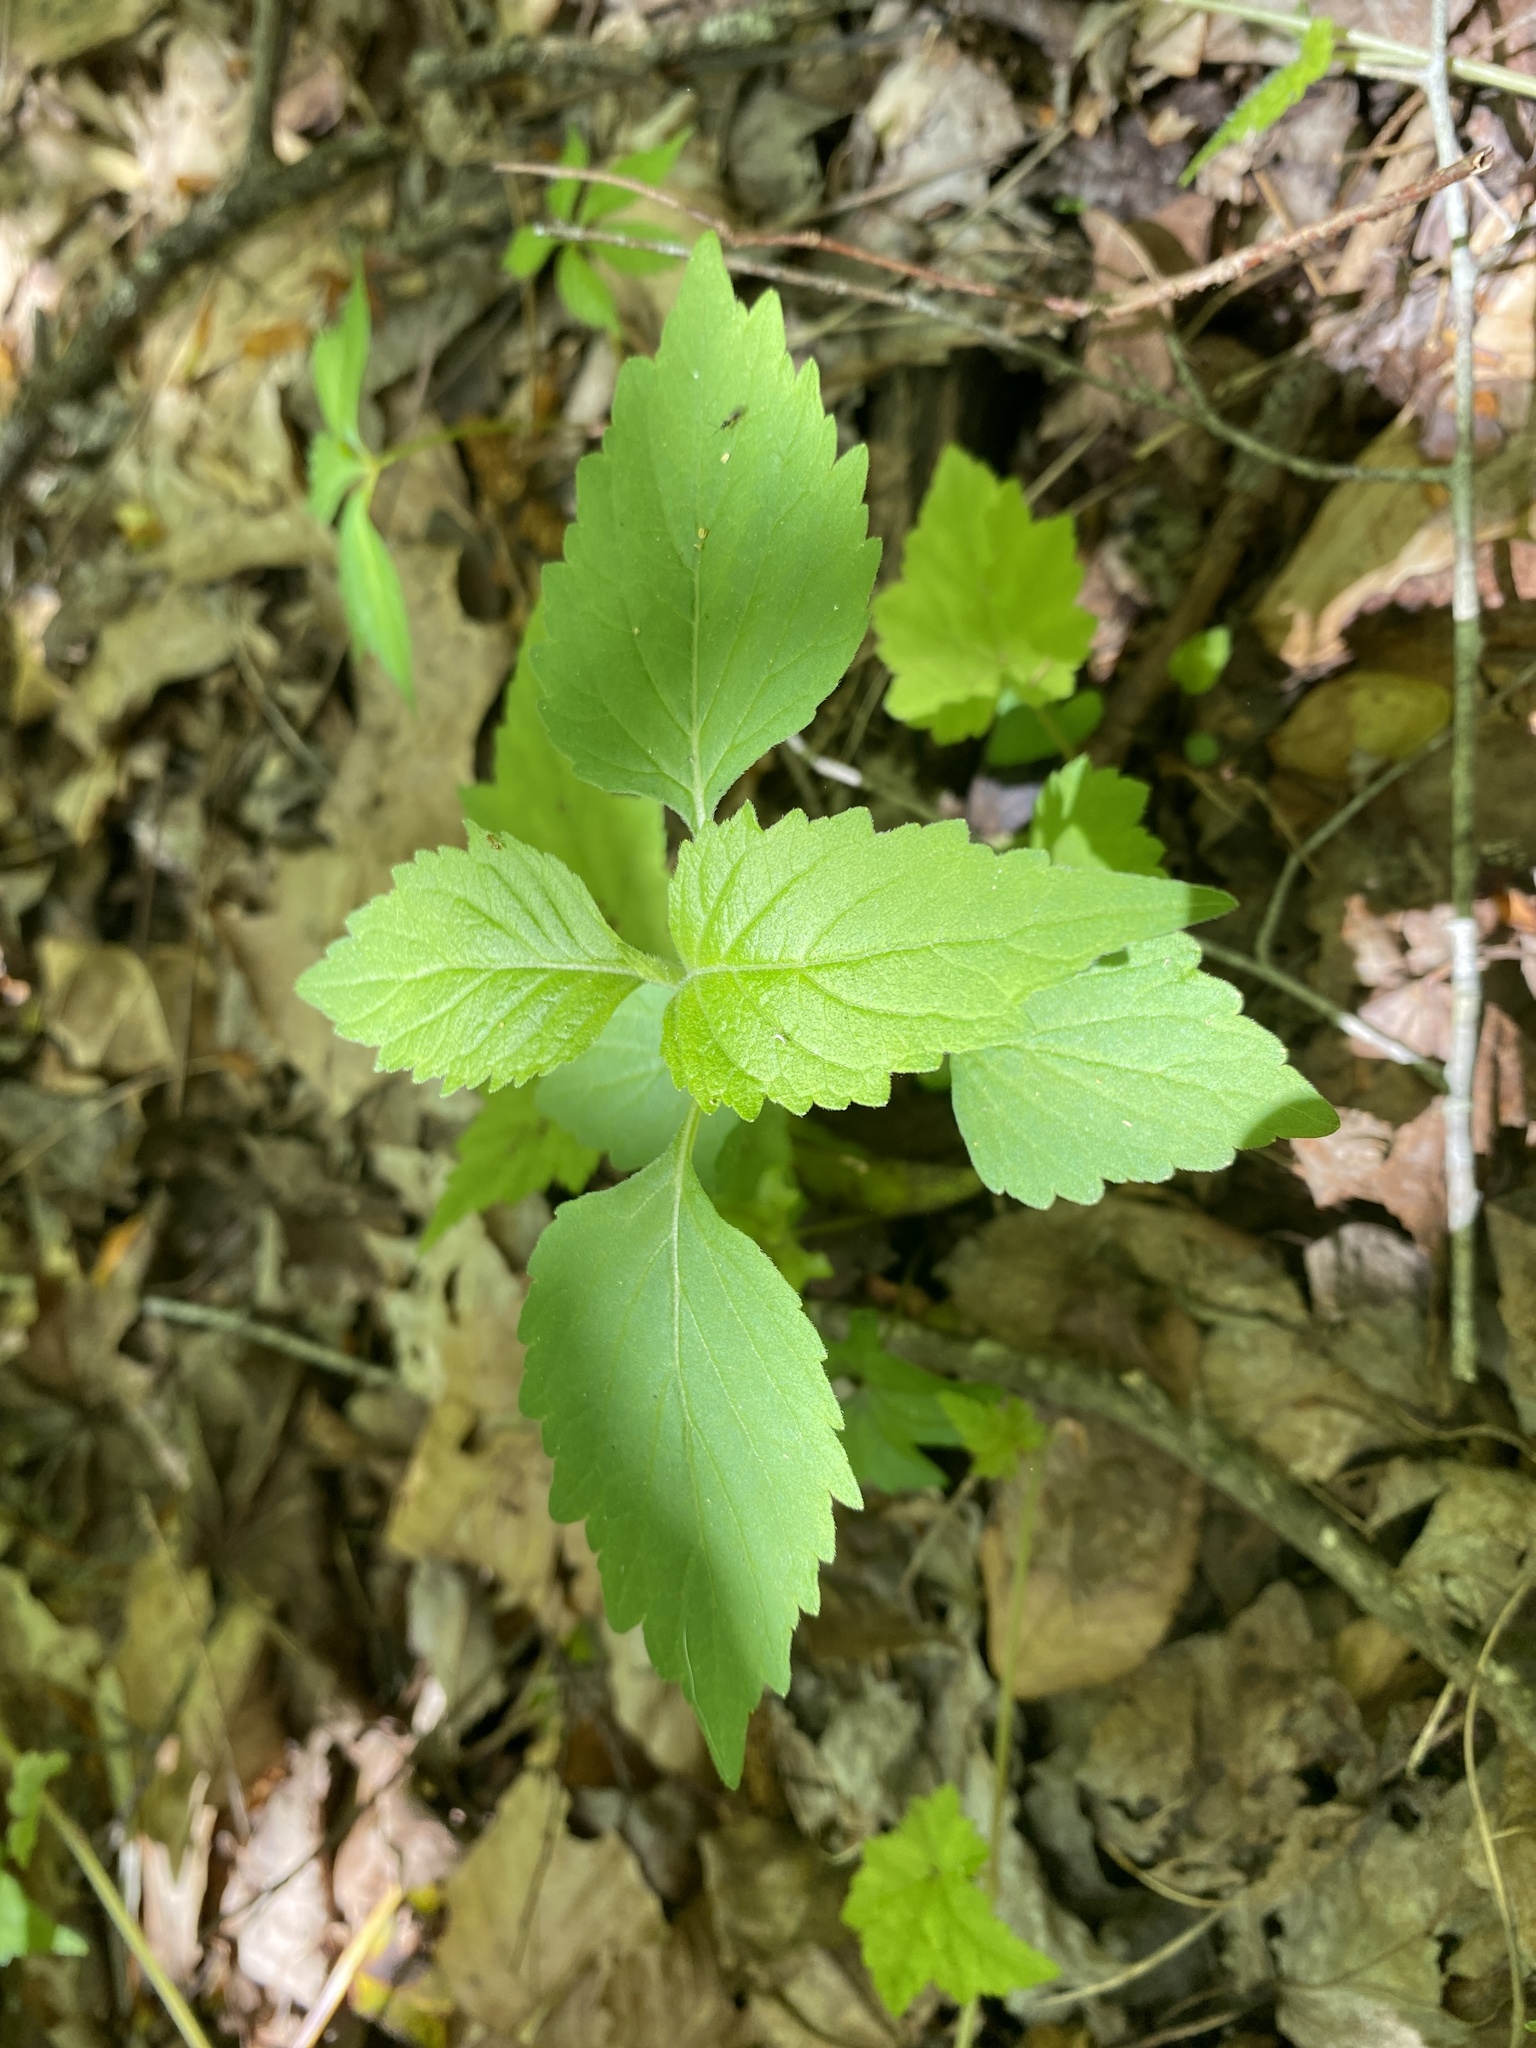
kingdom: Plantae
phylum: Tracheophyta
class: Magnoliopsida
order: Lamiales
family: Phrymaceae
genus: Phryma
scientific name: Phryma leptostachya
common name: American lopseed
